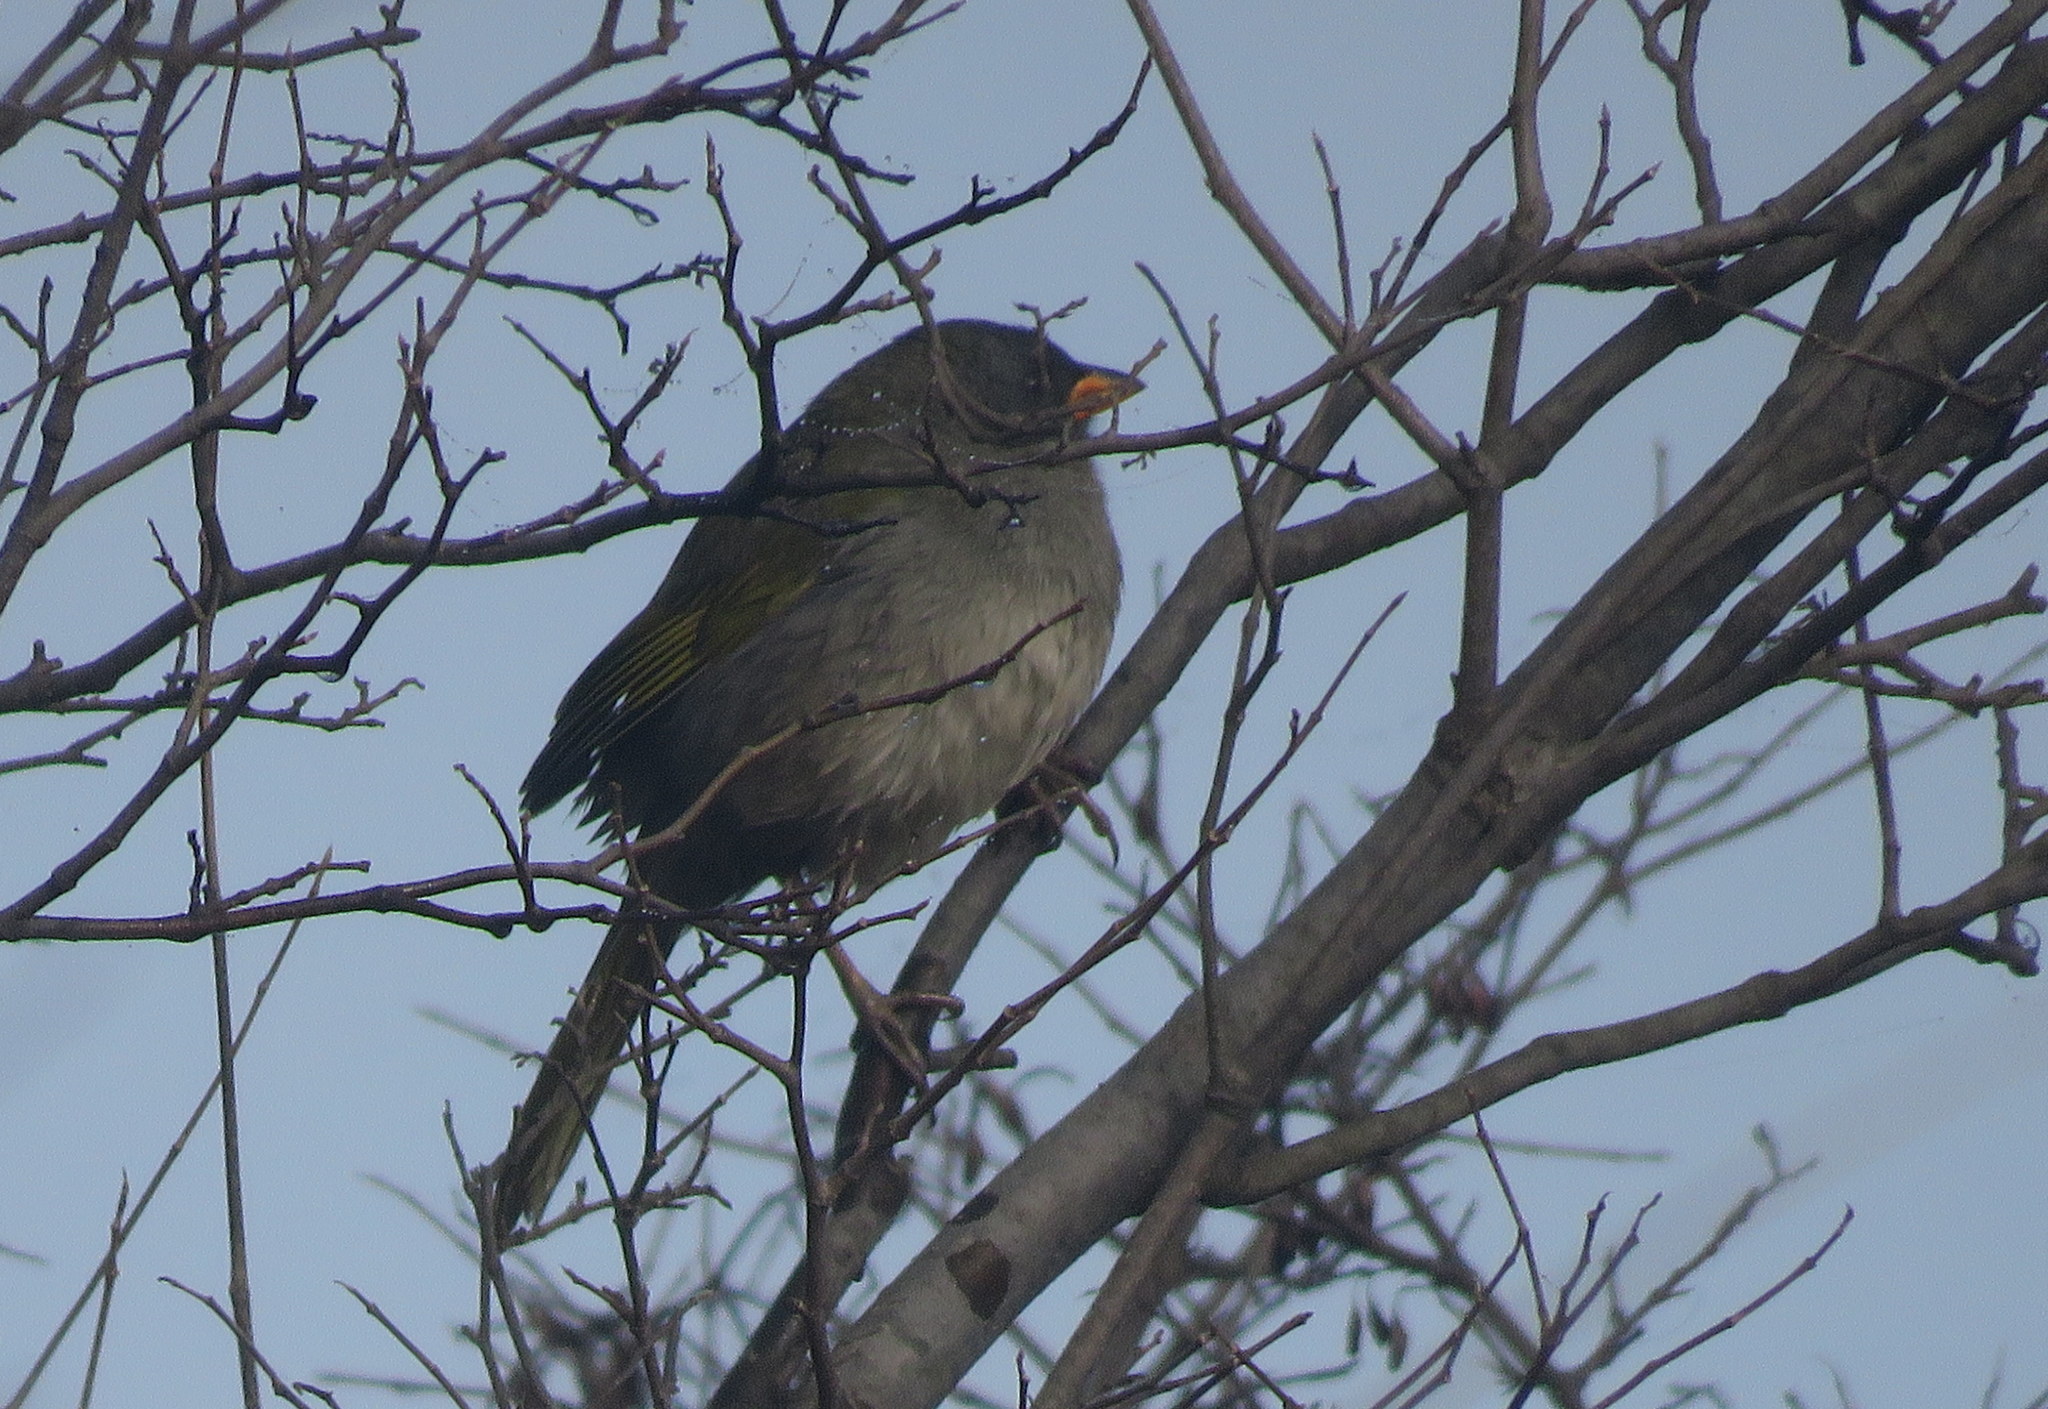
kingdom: Animalia
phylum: Chordata
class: Aves
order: Passeriformes
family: Thraupidae
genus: Embernagra
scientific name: Embernagra platensis
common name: Pampa finch
